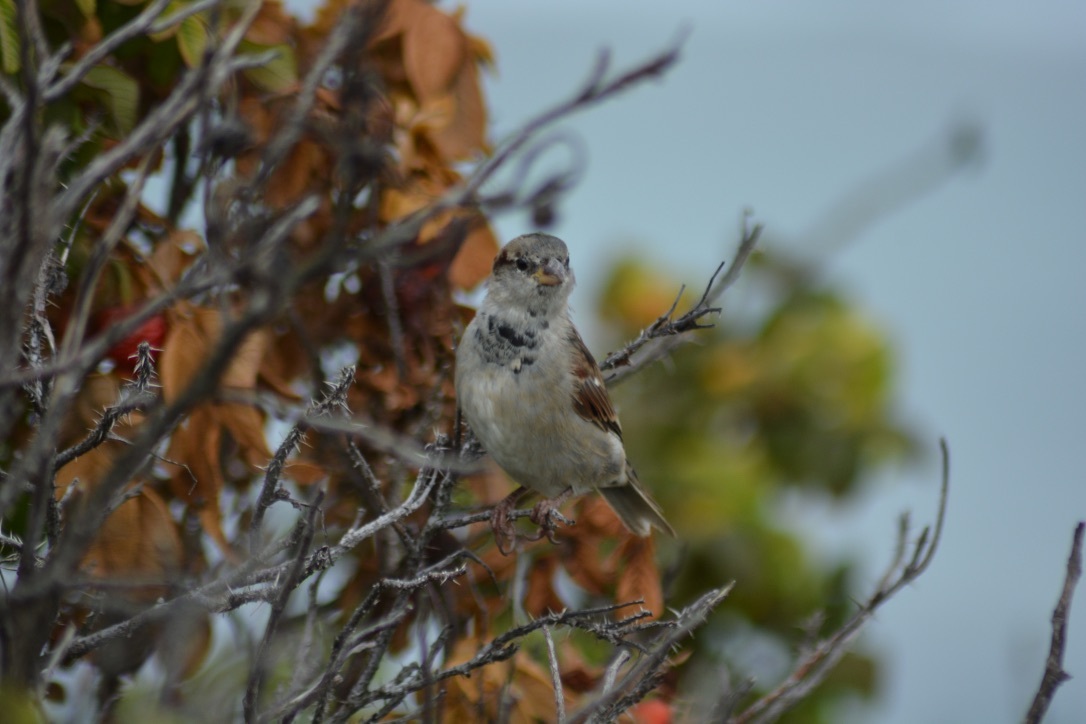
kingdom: Animalia
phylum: Chordata
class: Aves
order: Passeriformes
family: Passeridae
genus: Passer
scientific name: Passer domesticus
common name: House sparrow
